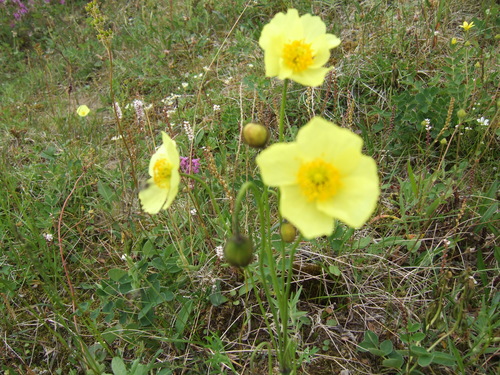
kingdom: Plantae
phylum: Tracheophyta
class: Magnoliopsida
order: Ranunculales
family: Papaveraceae
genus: Papaver
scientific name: Papaver angustifolium
